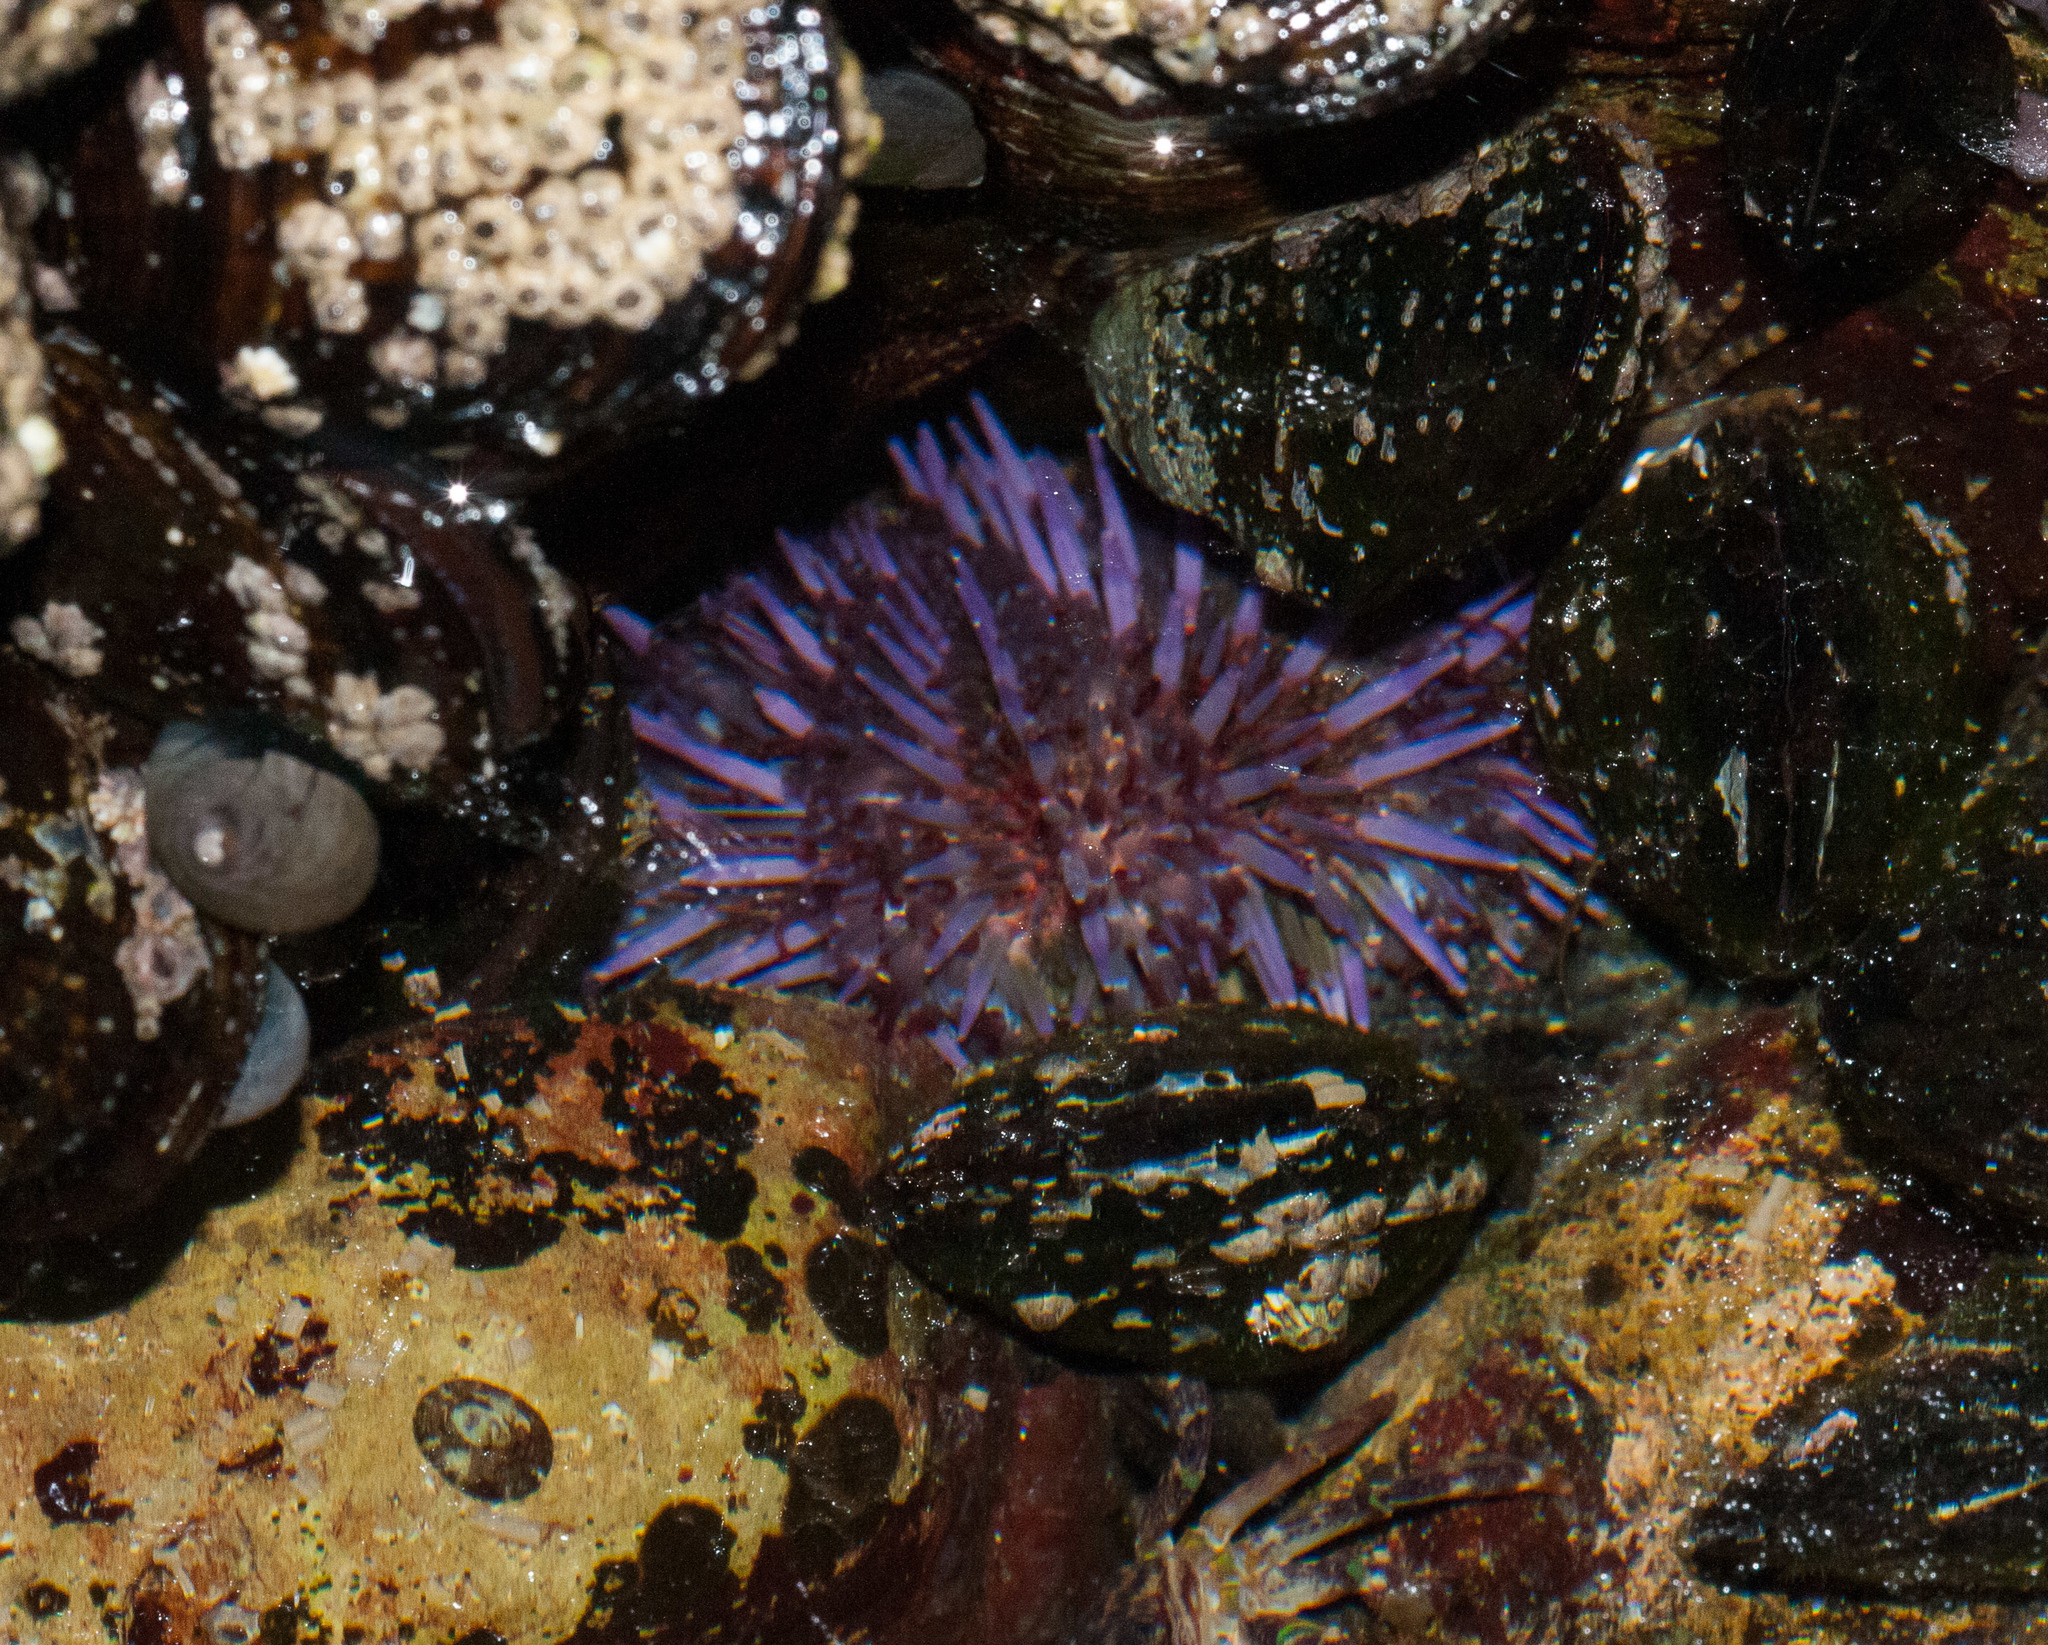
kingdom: Animalia
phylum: Echinodermata
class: Echinoidea
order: Camarodonta
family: Strongylocentrotidae
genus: Strongylocentrotus
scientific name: Strongylocentrotus purpuratus
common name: Purple sea urchin
